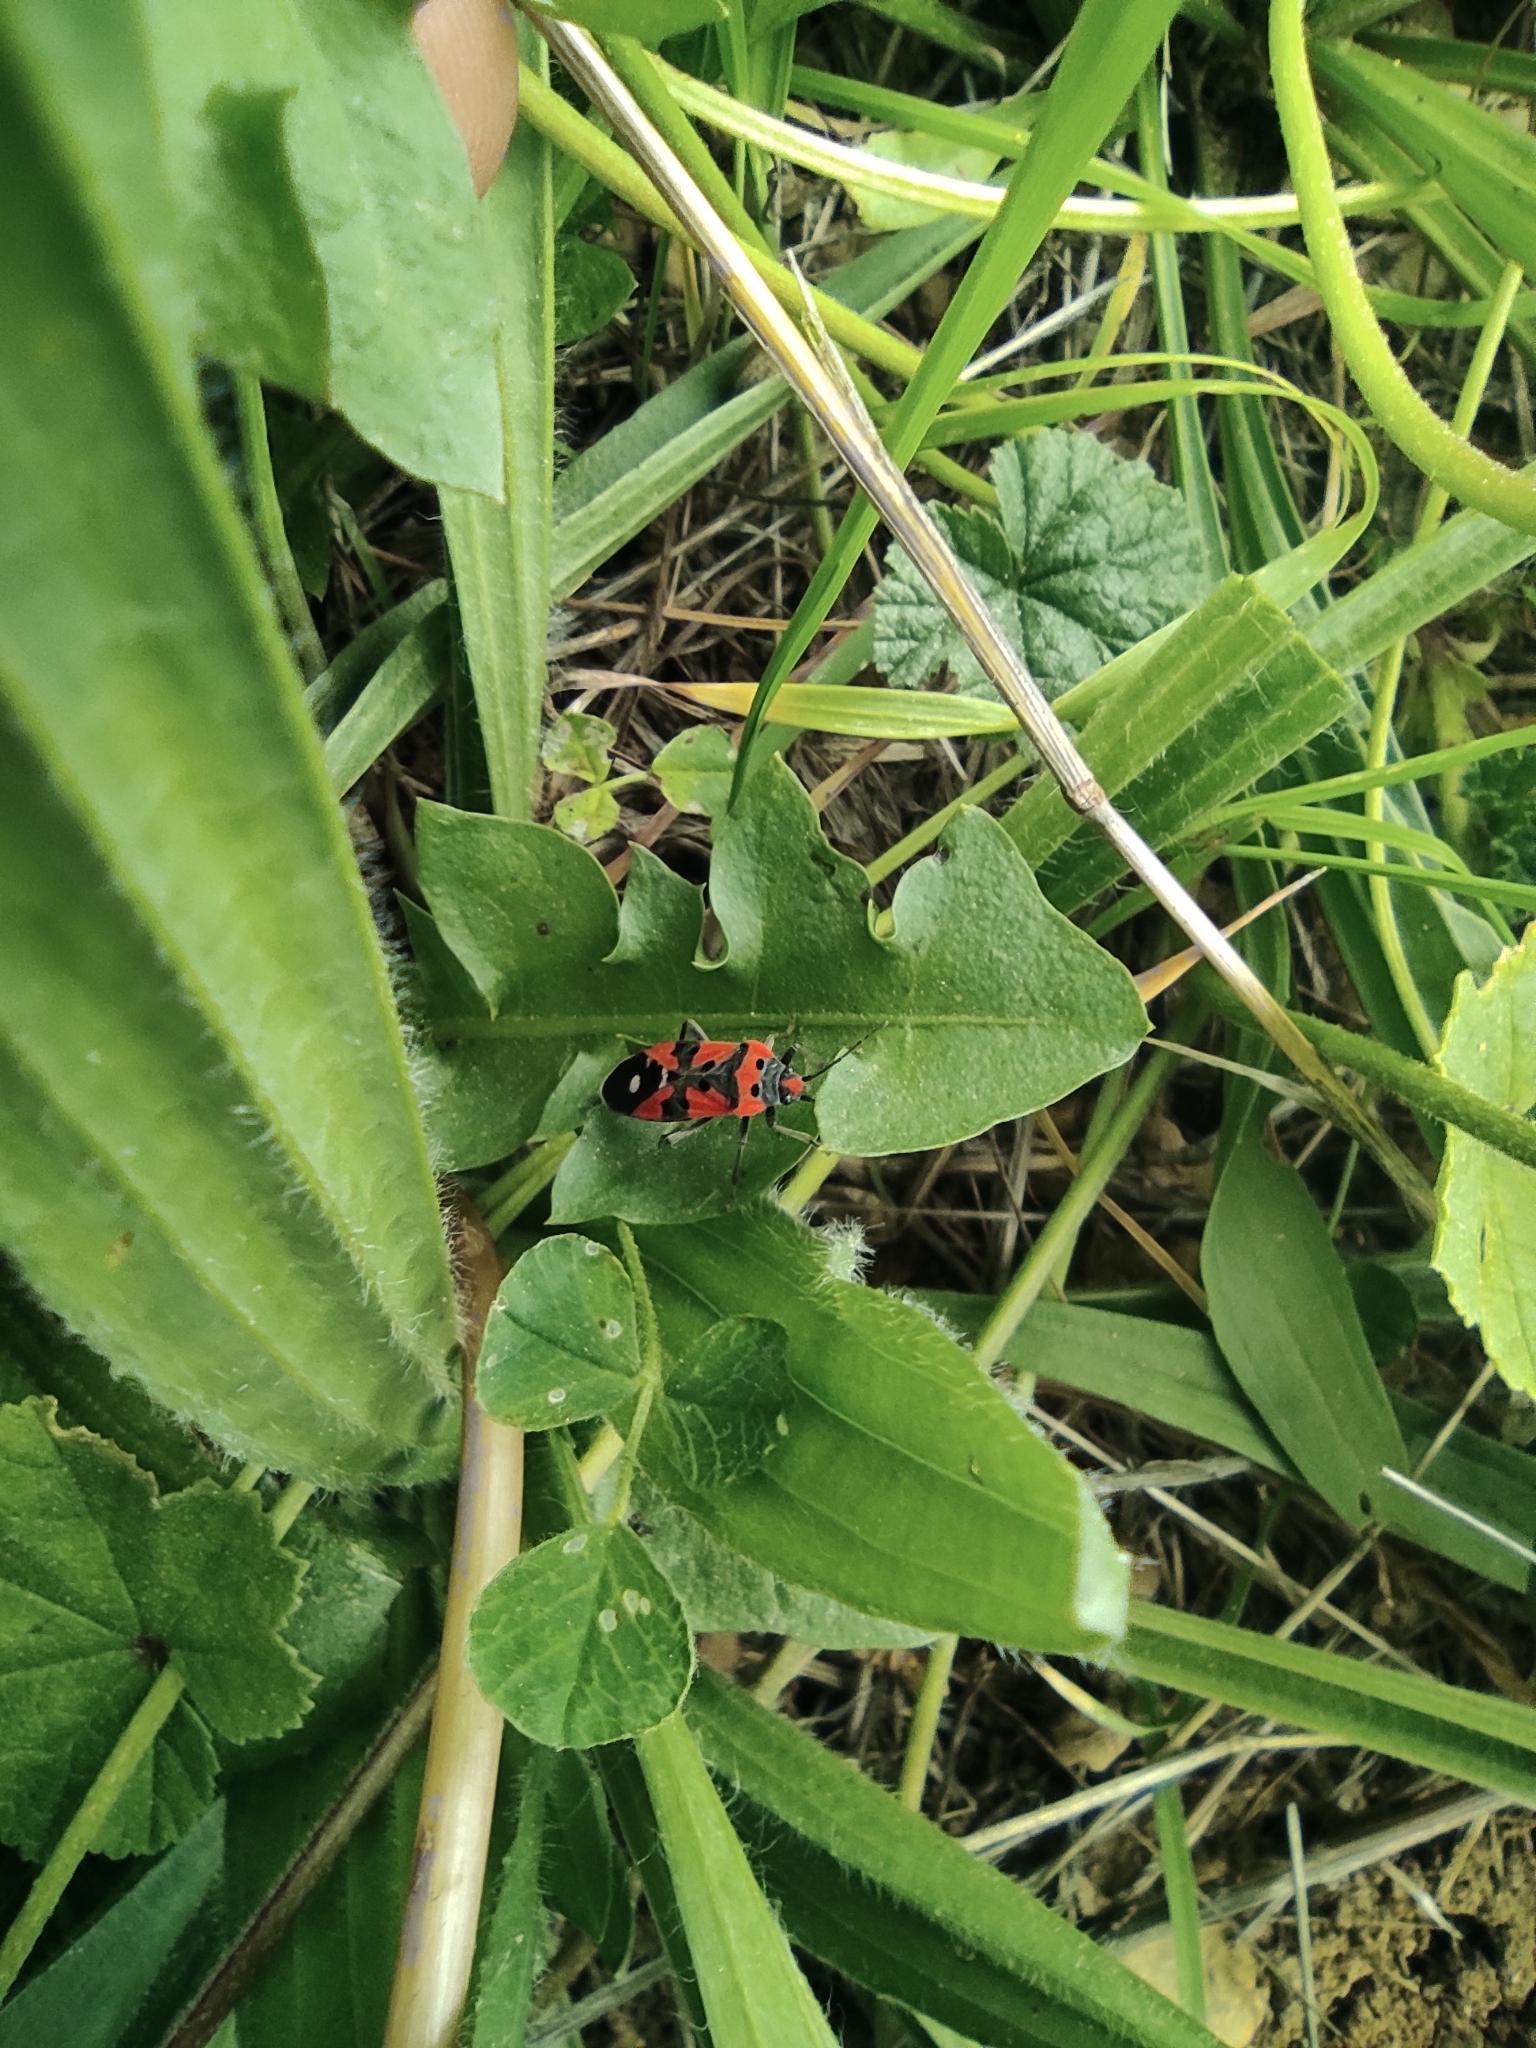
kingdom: Animalia
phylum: Arthropoda
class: Insecta
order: Hemiptera
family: Lygaeidae
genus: Lygaeus
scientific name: Lygaeus equestris
